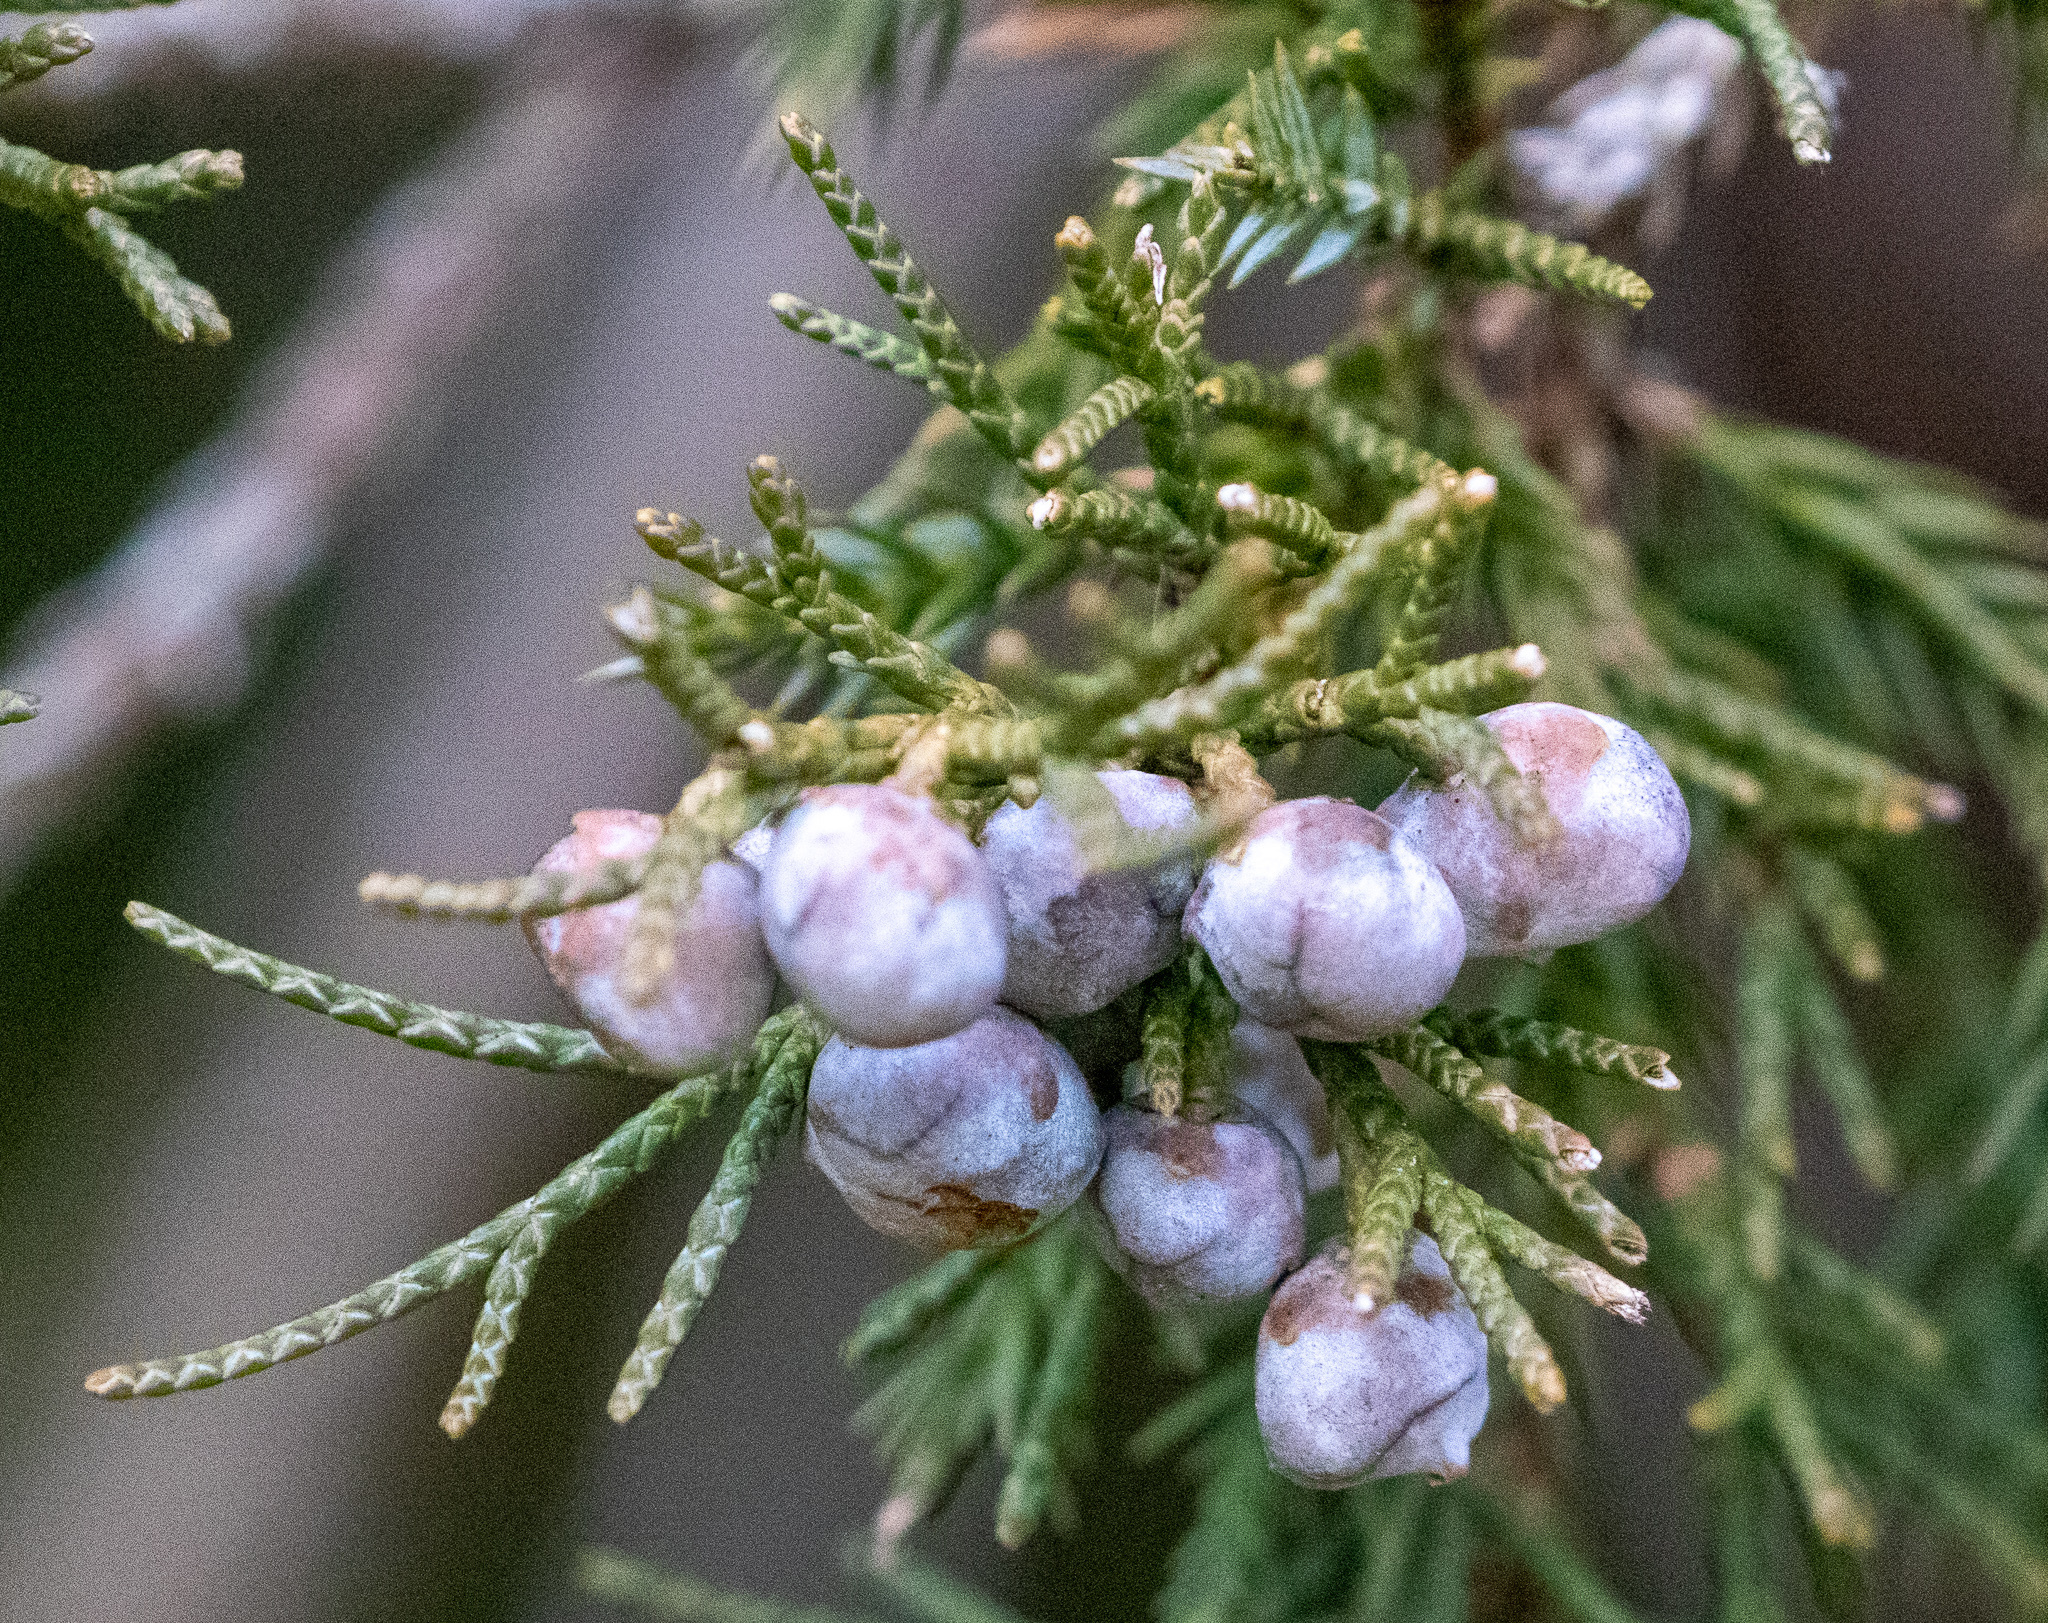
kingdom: Plantae
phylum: Tracheophyta
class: Pinopsida
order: Pinales
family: Cupressaceae
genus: Juniperus
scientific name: Juniperus virginiana
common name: Red juniper
